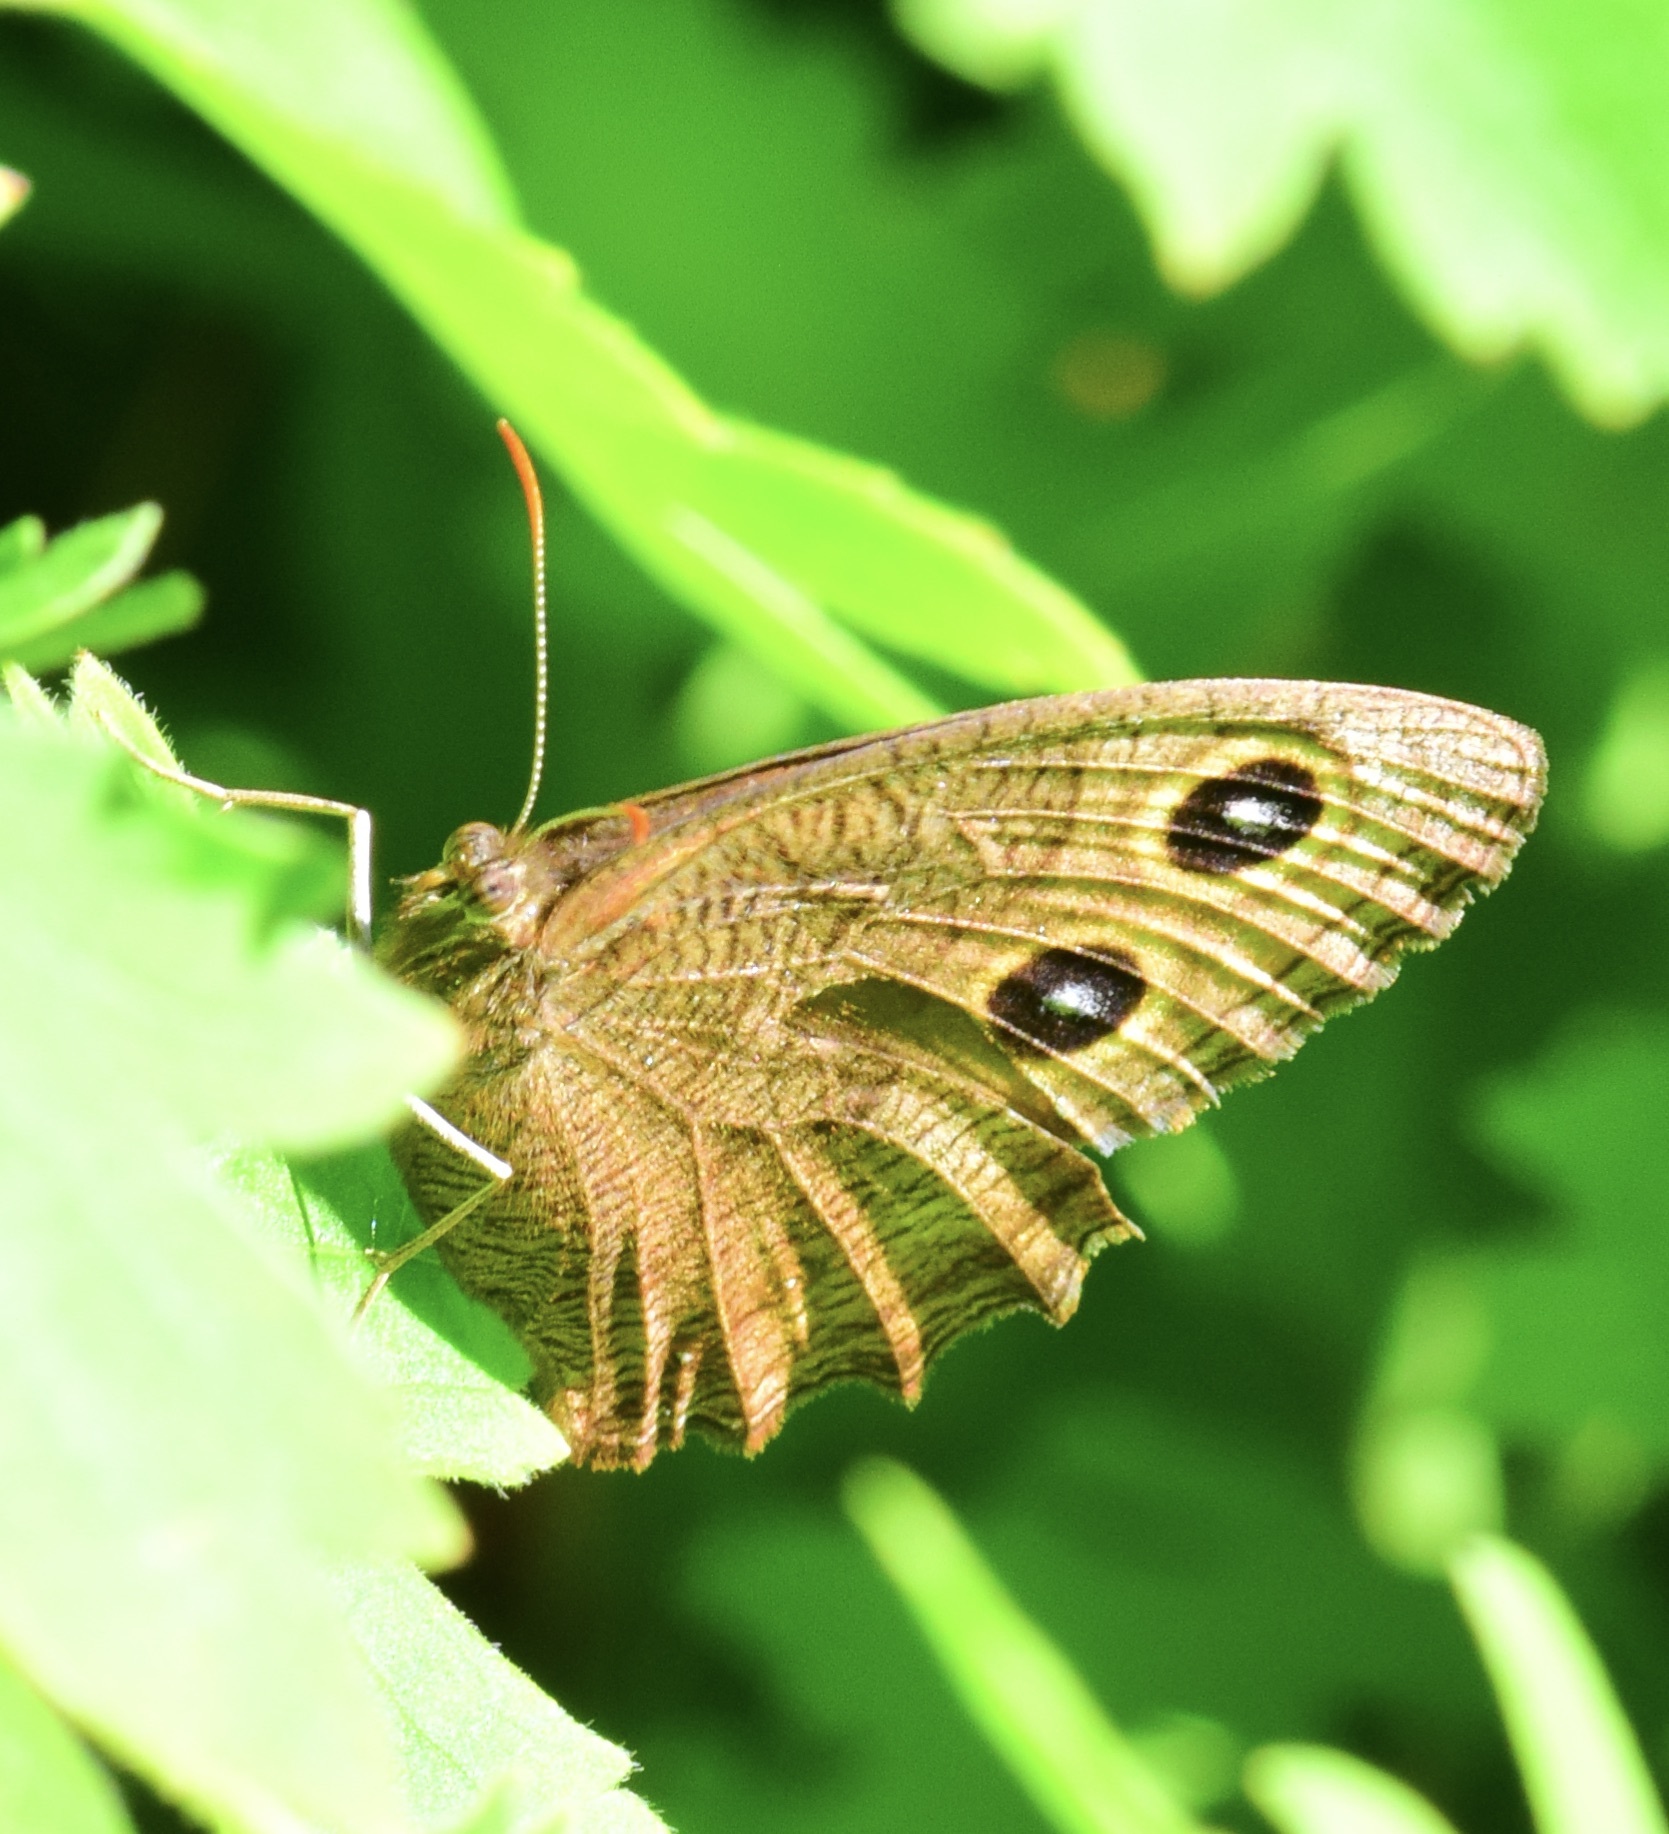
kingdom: Animalia
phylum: Arthropoda
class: Insecta
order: Lepidoptera
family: Nymphalidae
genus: Cercyonis
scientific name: Cercyonis pegala
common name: Common wood-nymph
